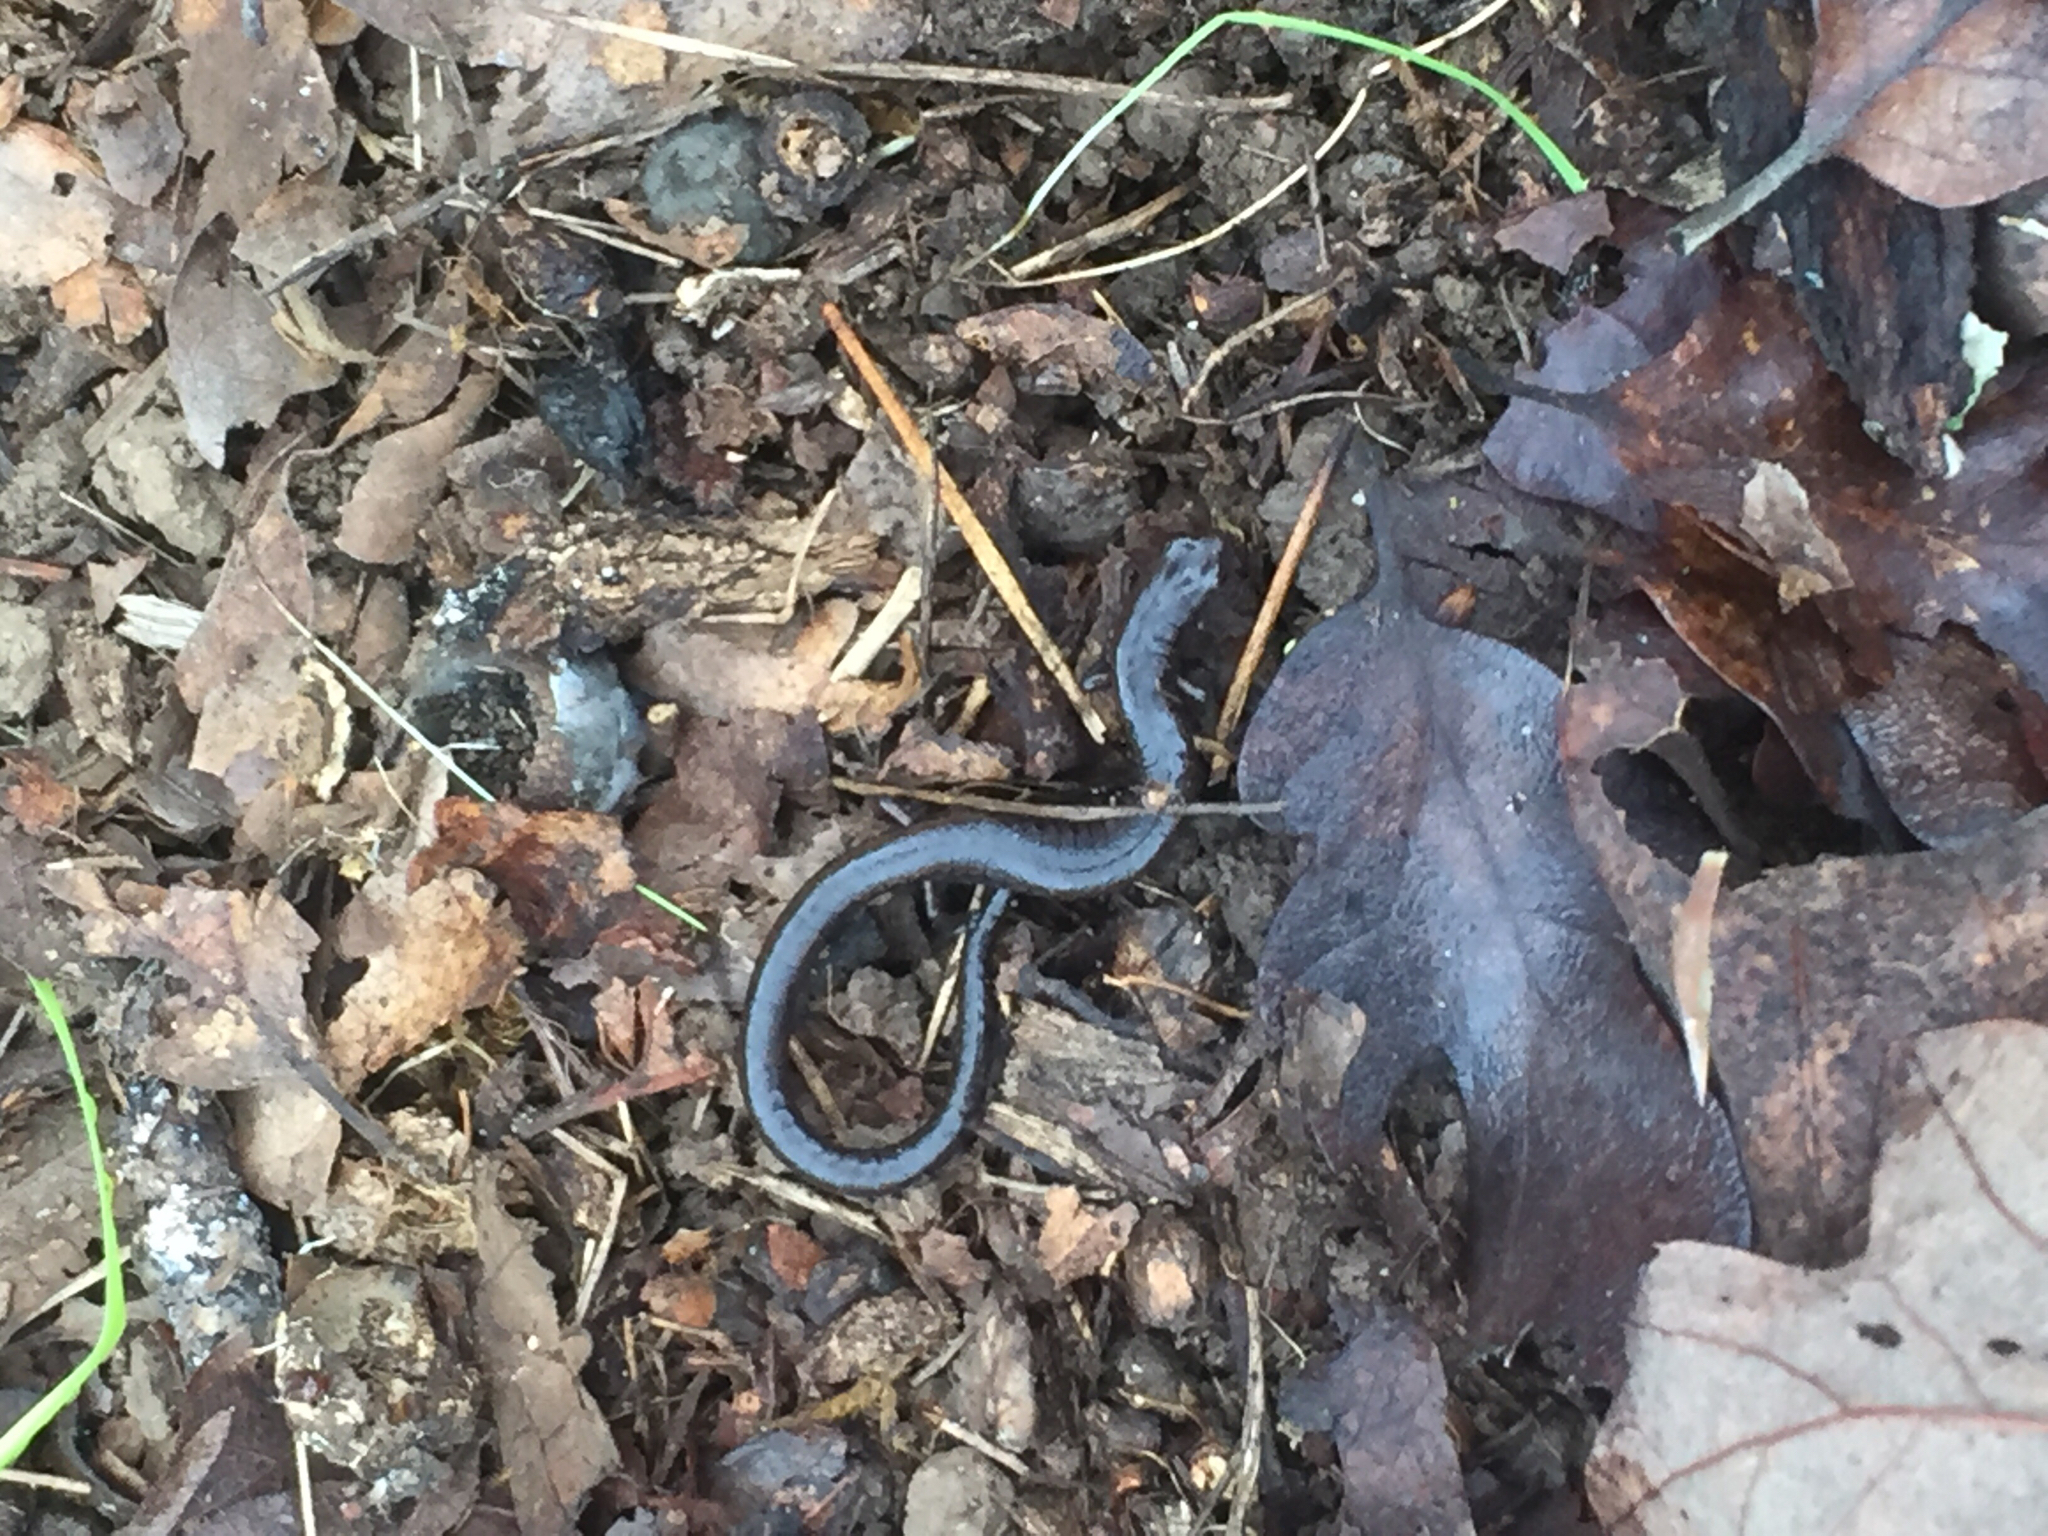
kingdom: Animalia
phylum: Chordata
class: Amphibia
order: Caudata
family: Plethodontidae
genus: Batrachoseps
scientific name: Batrachoseps attenuatus
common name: California slender salamander
